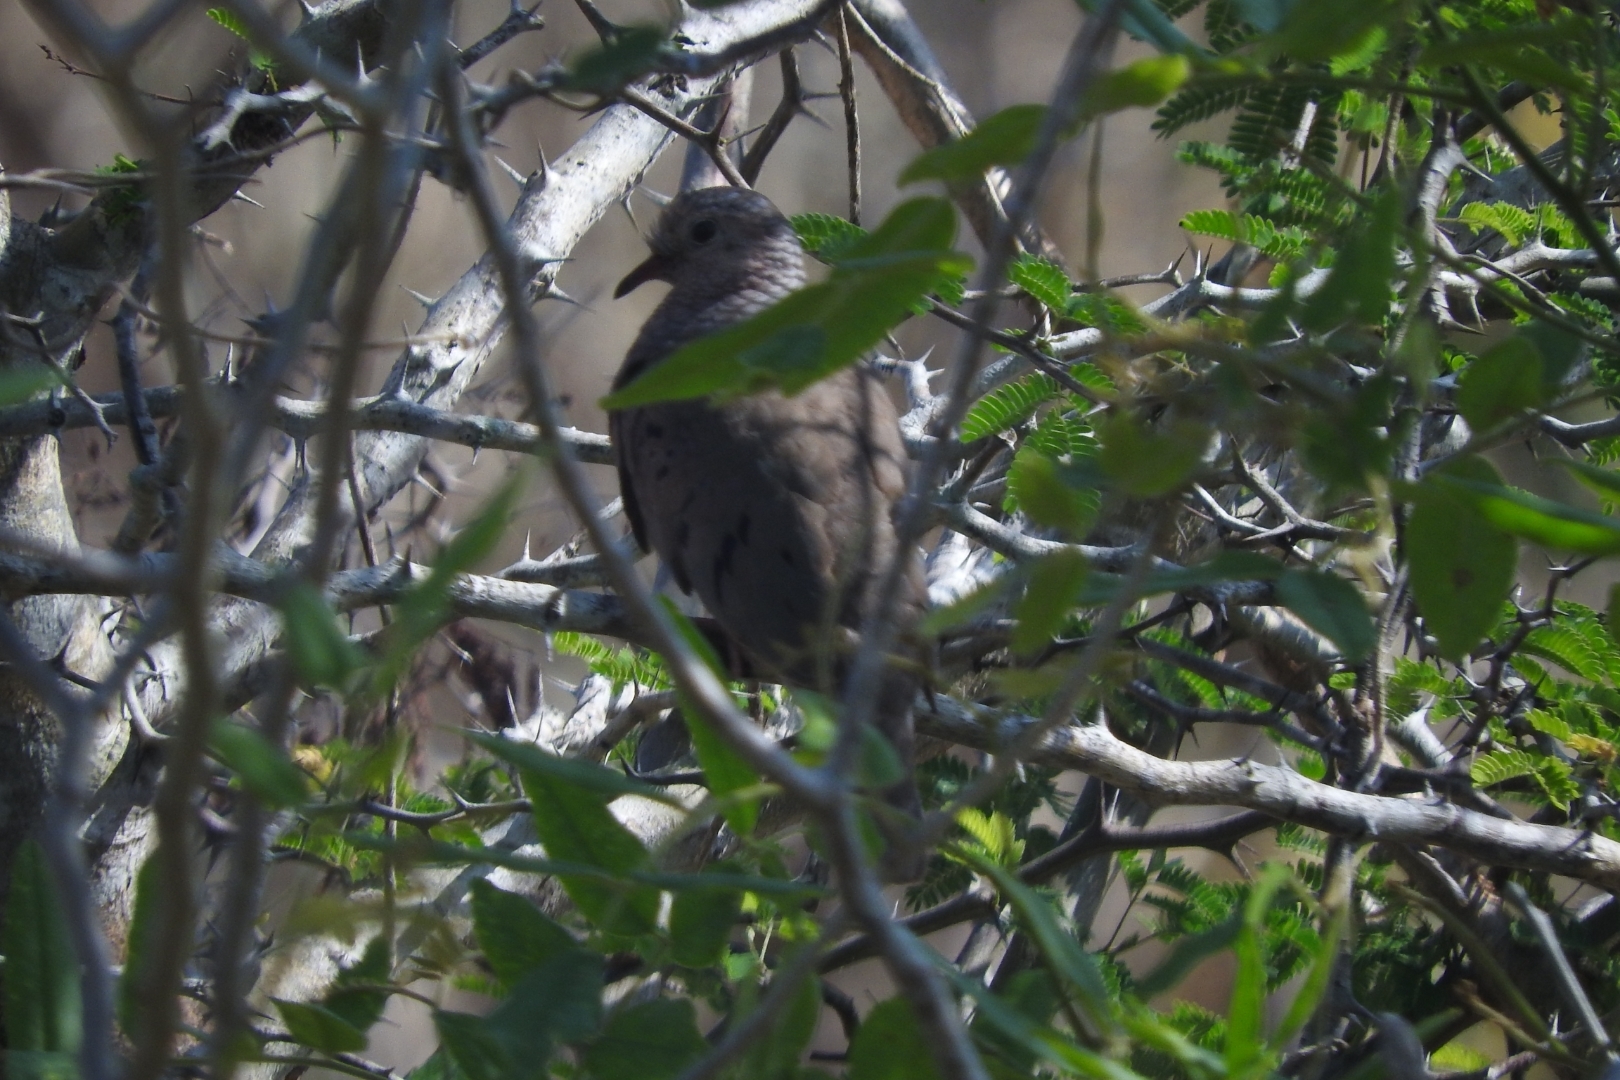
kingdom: Animalia
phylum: Chordata
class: Aves
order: Columbiformes
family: Columbidae
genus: Columbina
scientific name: Columbina passerina
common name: Common ground-dove
